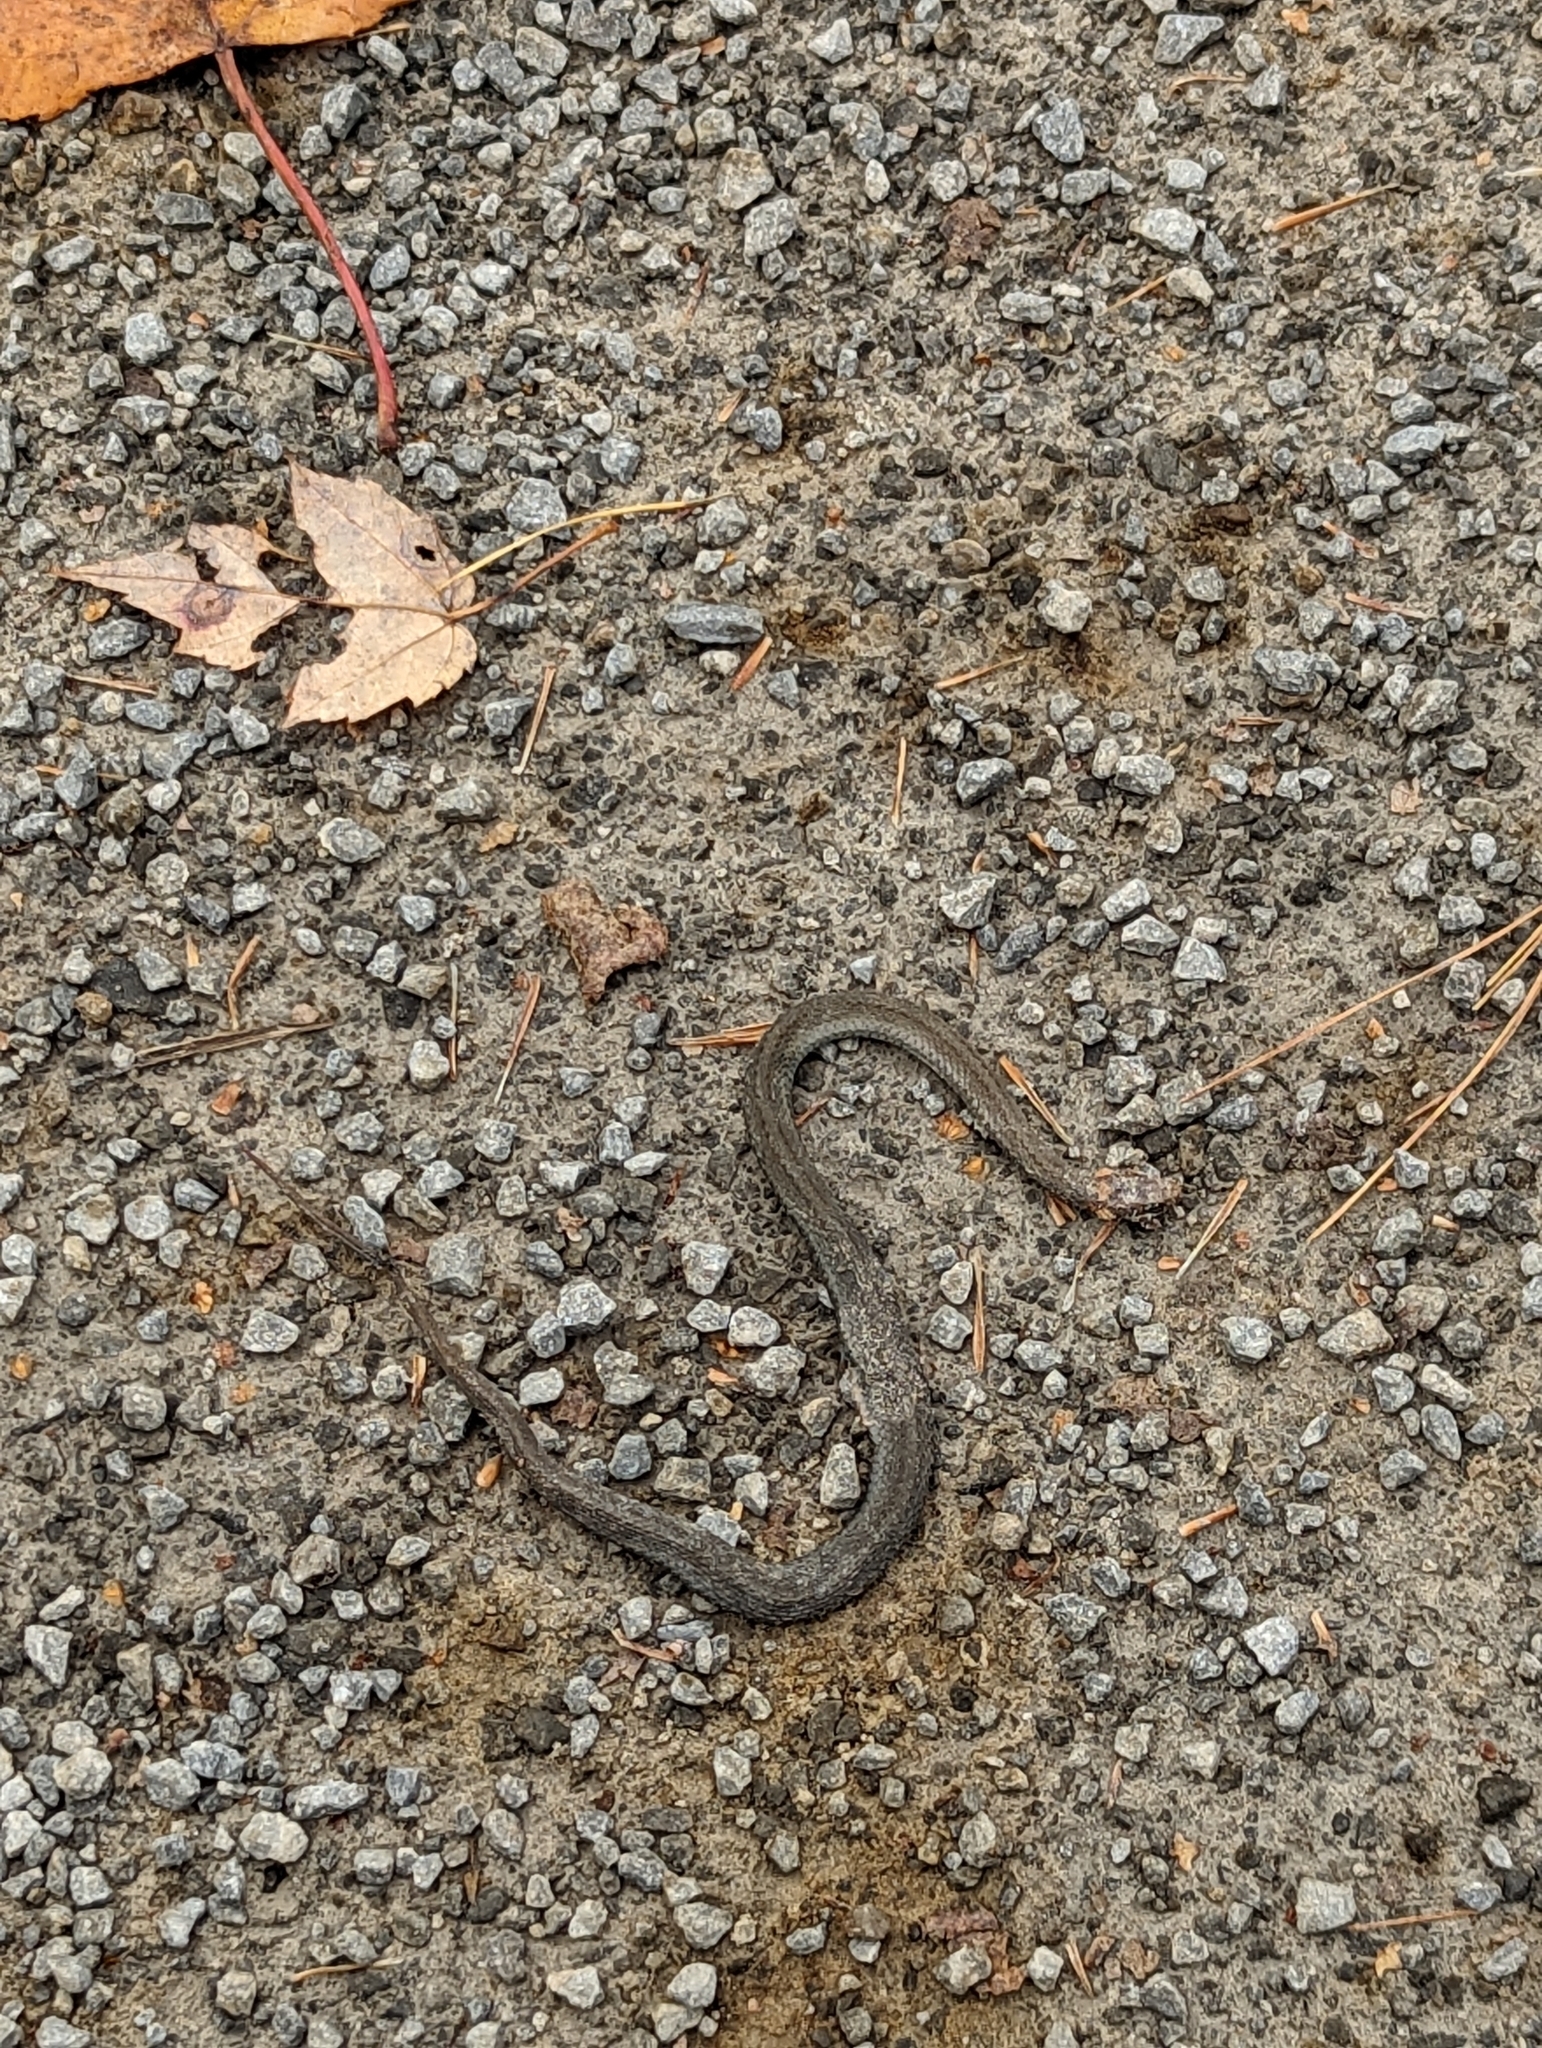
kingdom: Animalia
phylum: Chordata
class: Squamata
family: Colubridae
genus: Storeria
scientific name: Storeria occipitomaculata
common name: Redbelly snake
